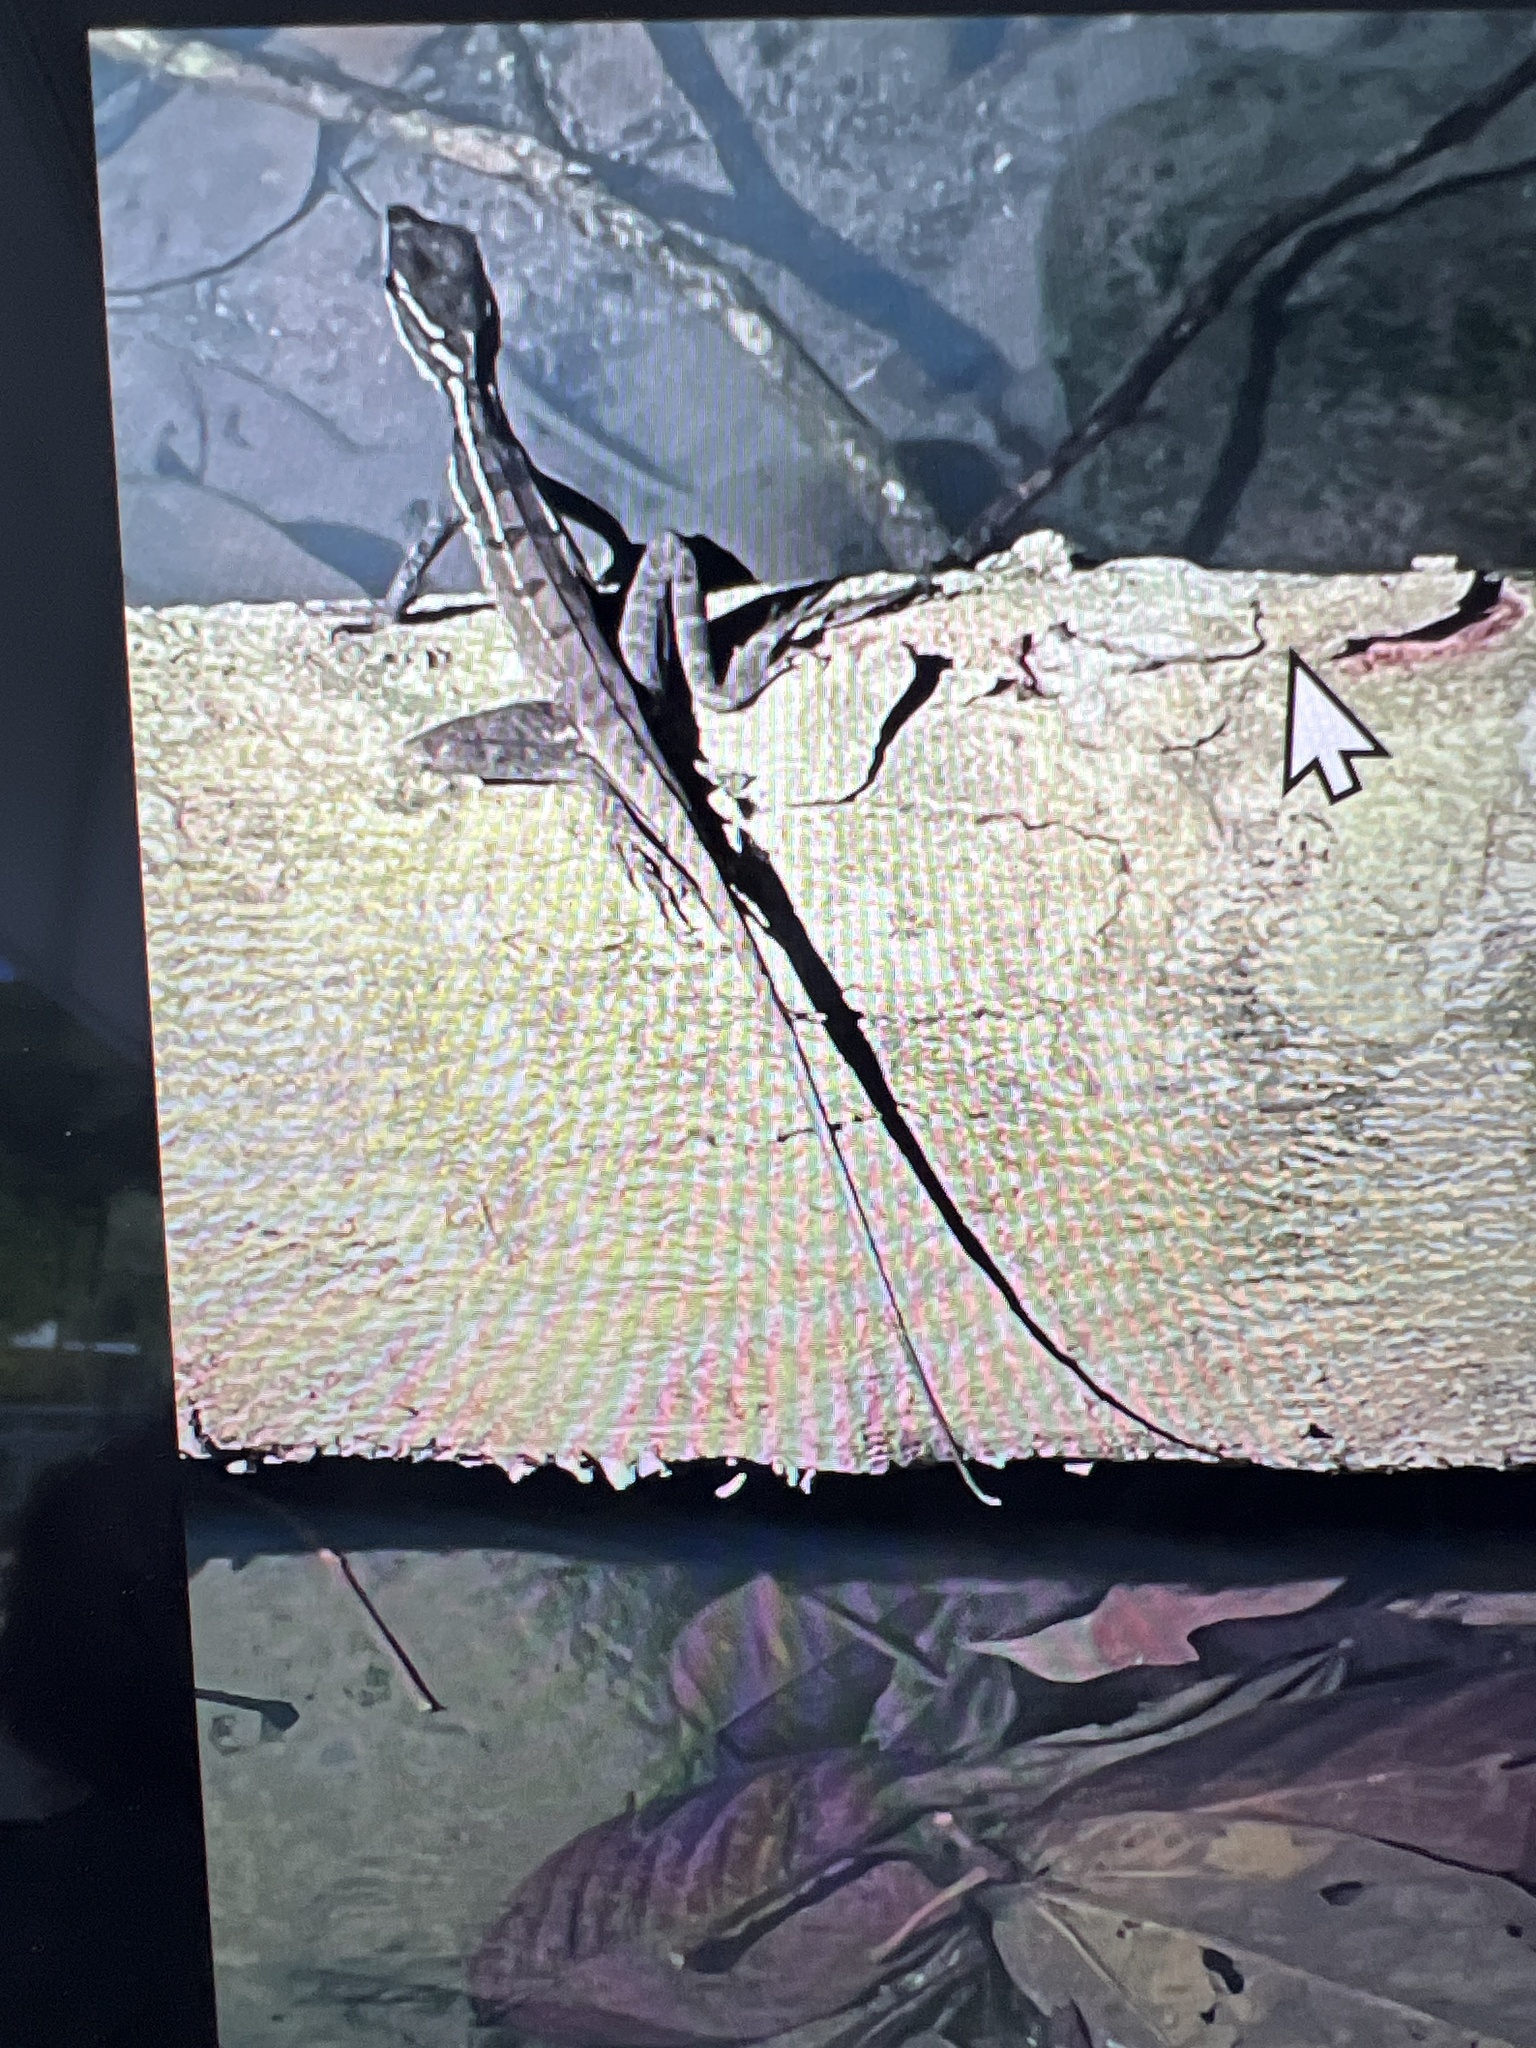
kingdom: Animalia
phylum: Chordata
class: Squamata
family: Corytophanidae
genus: Basiliscus
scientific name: Basiliscus basiliscus
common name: Common basilisk
